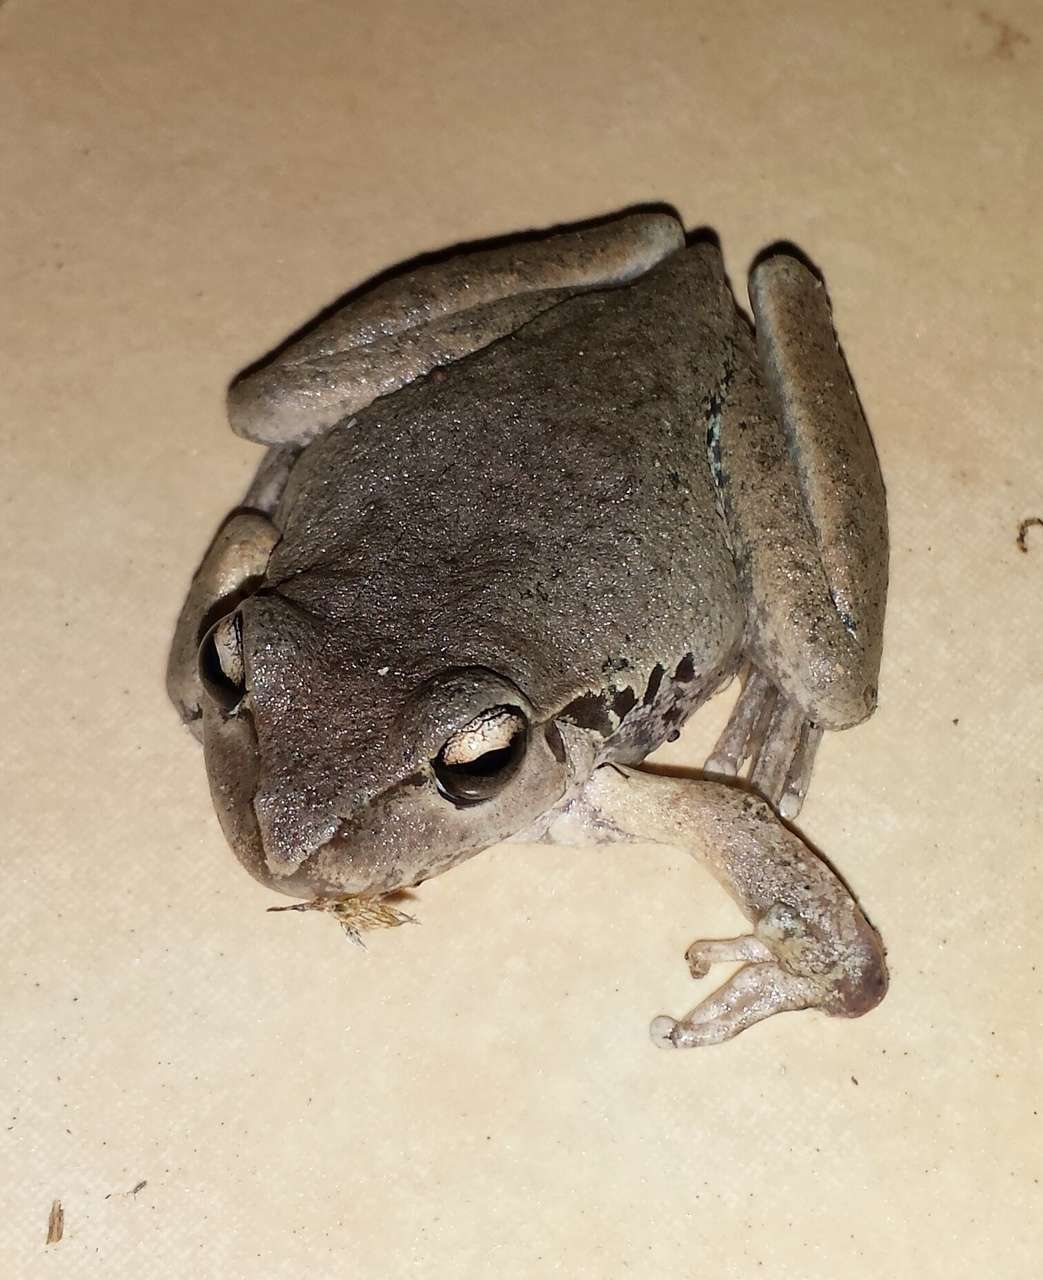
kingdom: Animalia
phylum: Chordata
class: Amphibia
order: Anura
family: Pelodryadidae
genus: Ranoidea
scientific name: Ranoidea lesueurii
